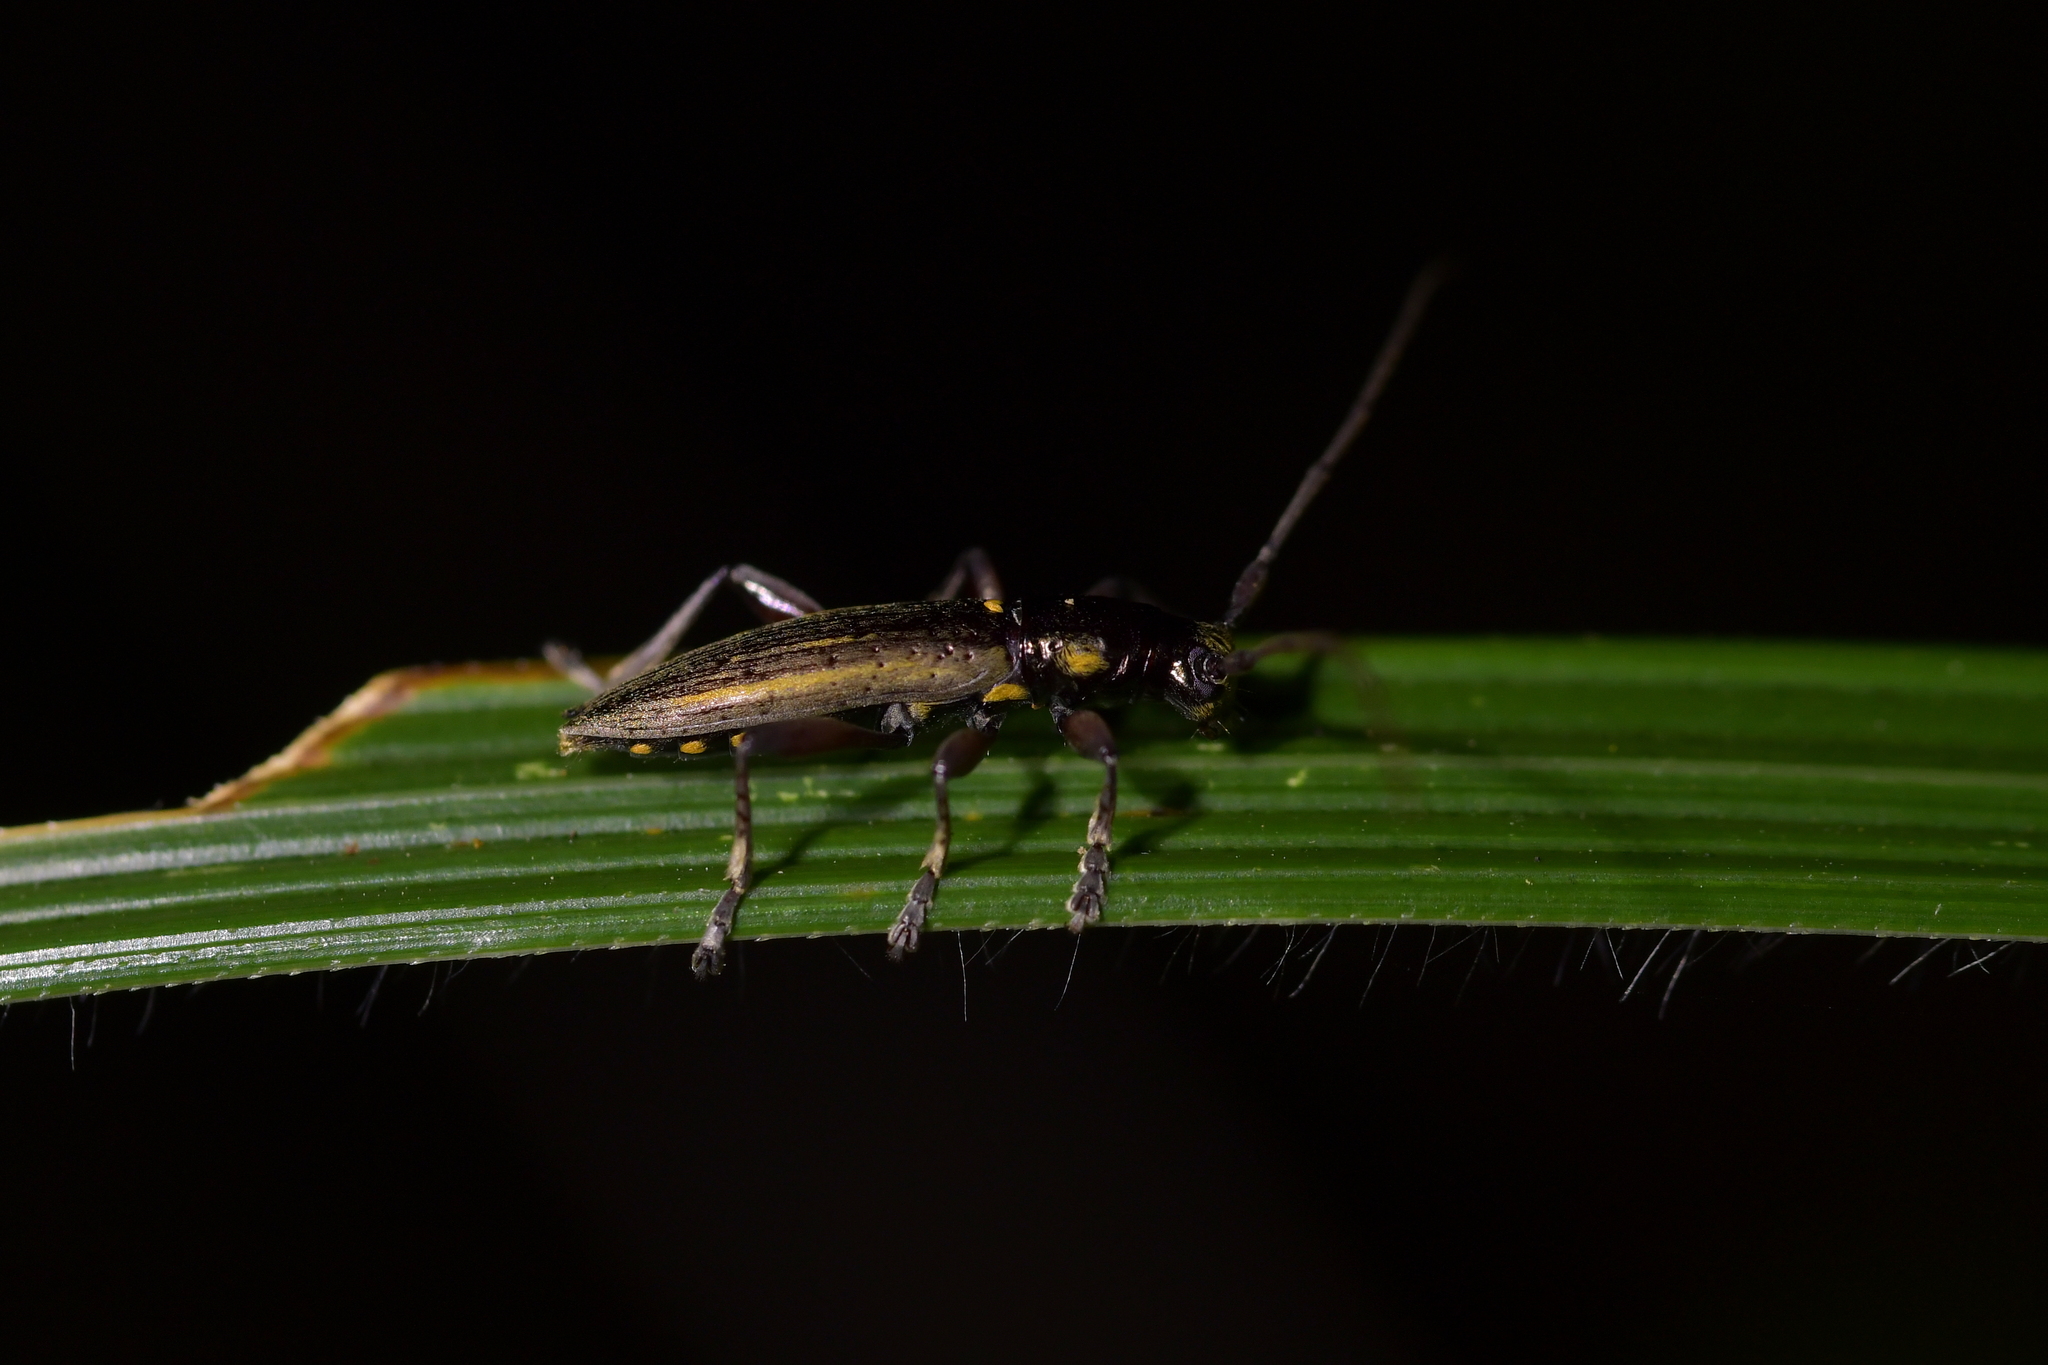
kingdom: Animalia
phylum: Arthropoda
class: Insecta
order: Coleoptera
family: Cerambycidae
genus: Xylotoles
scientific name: Xylotoles lynceus
